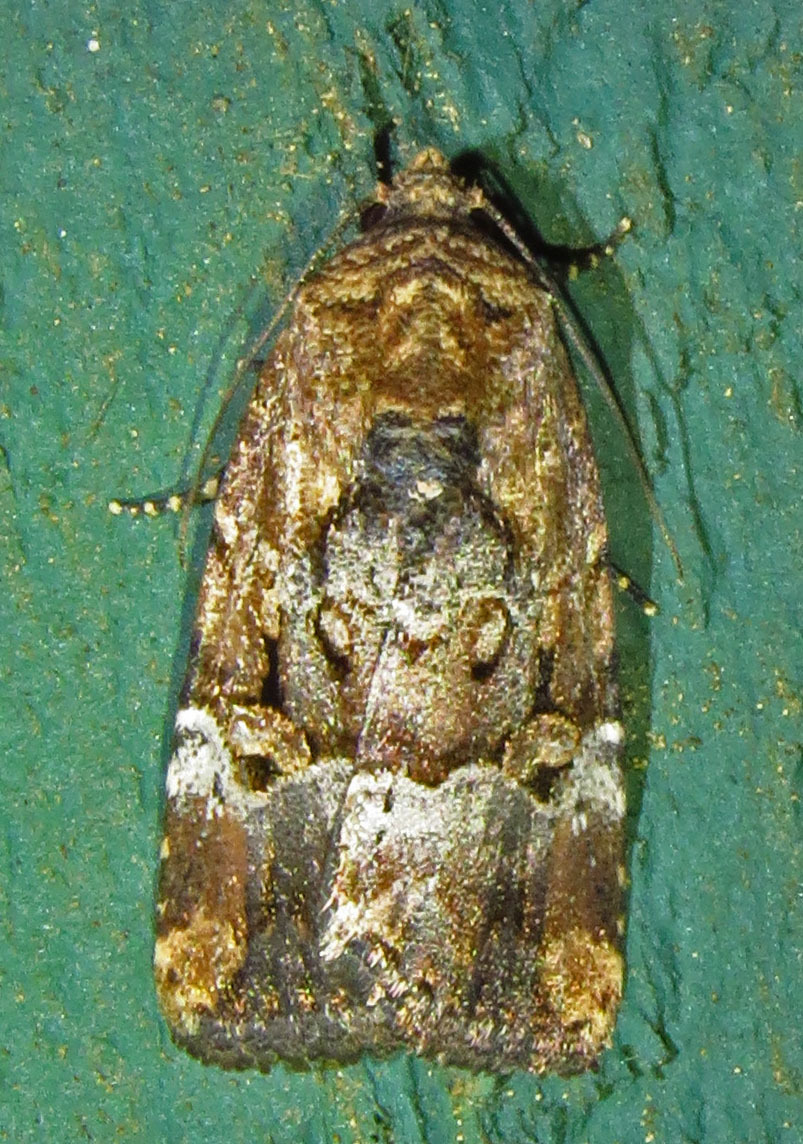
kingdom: Animalia
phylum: Arthropoda
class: Insecta
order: Lepidoptera
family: Noctuidae
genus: Elaphria
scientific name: Elaphria chalcedonia
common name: Chalcedony midget
